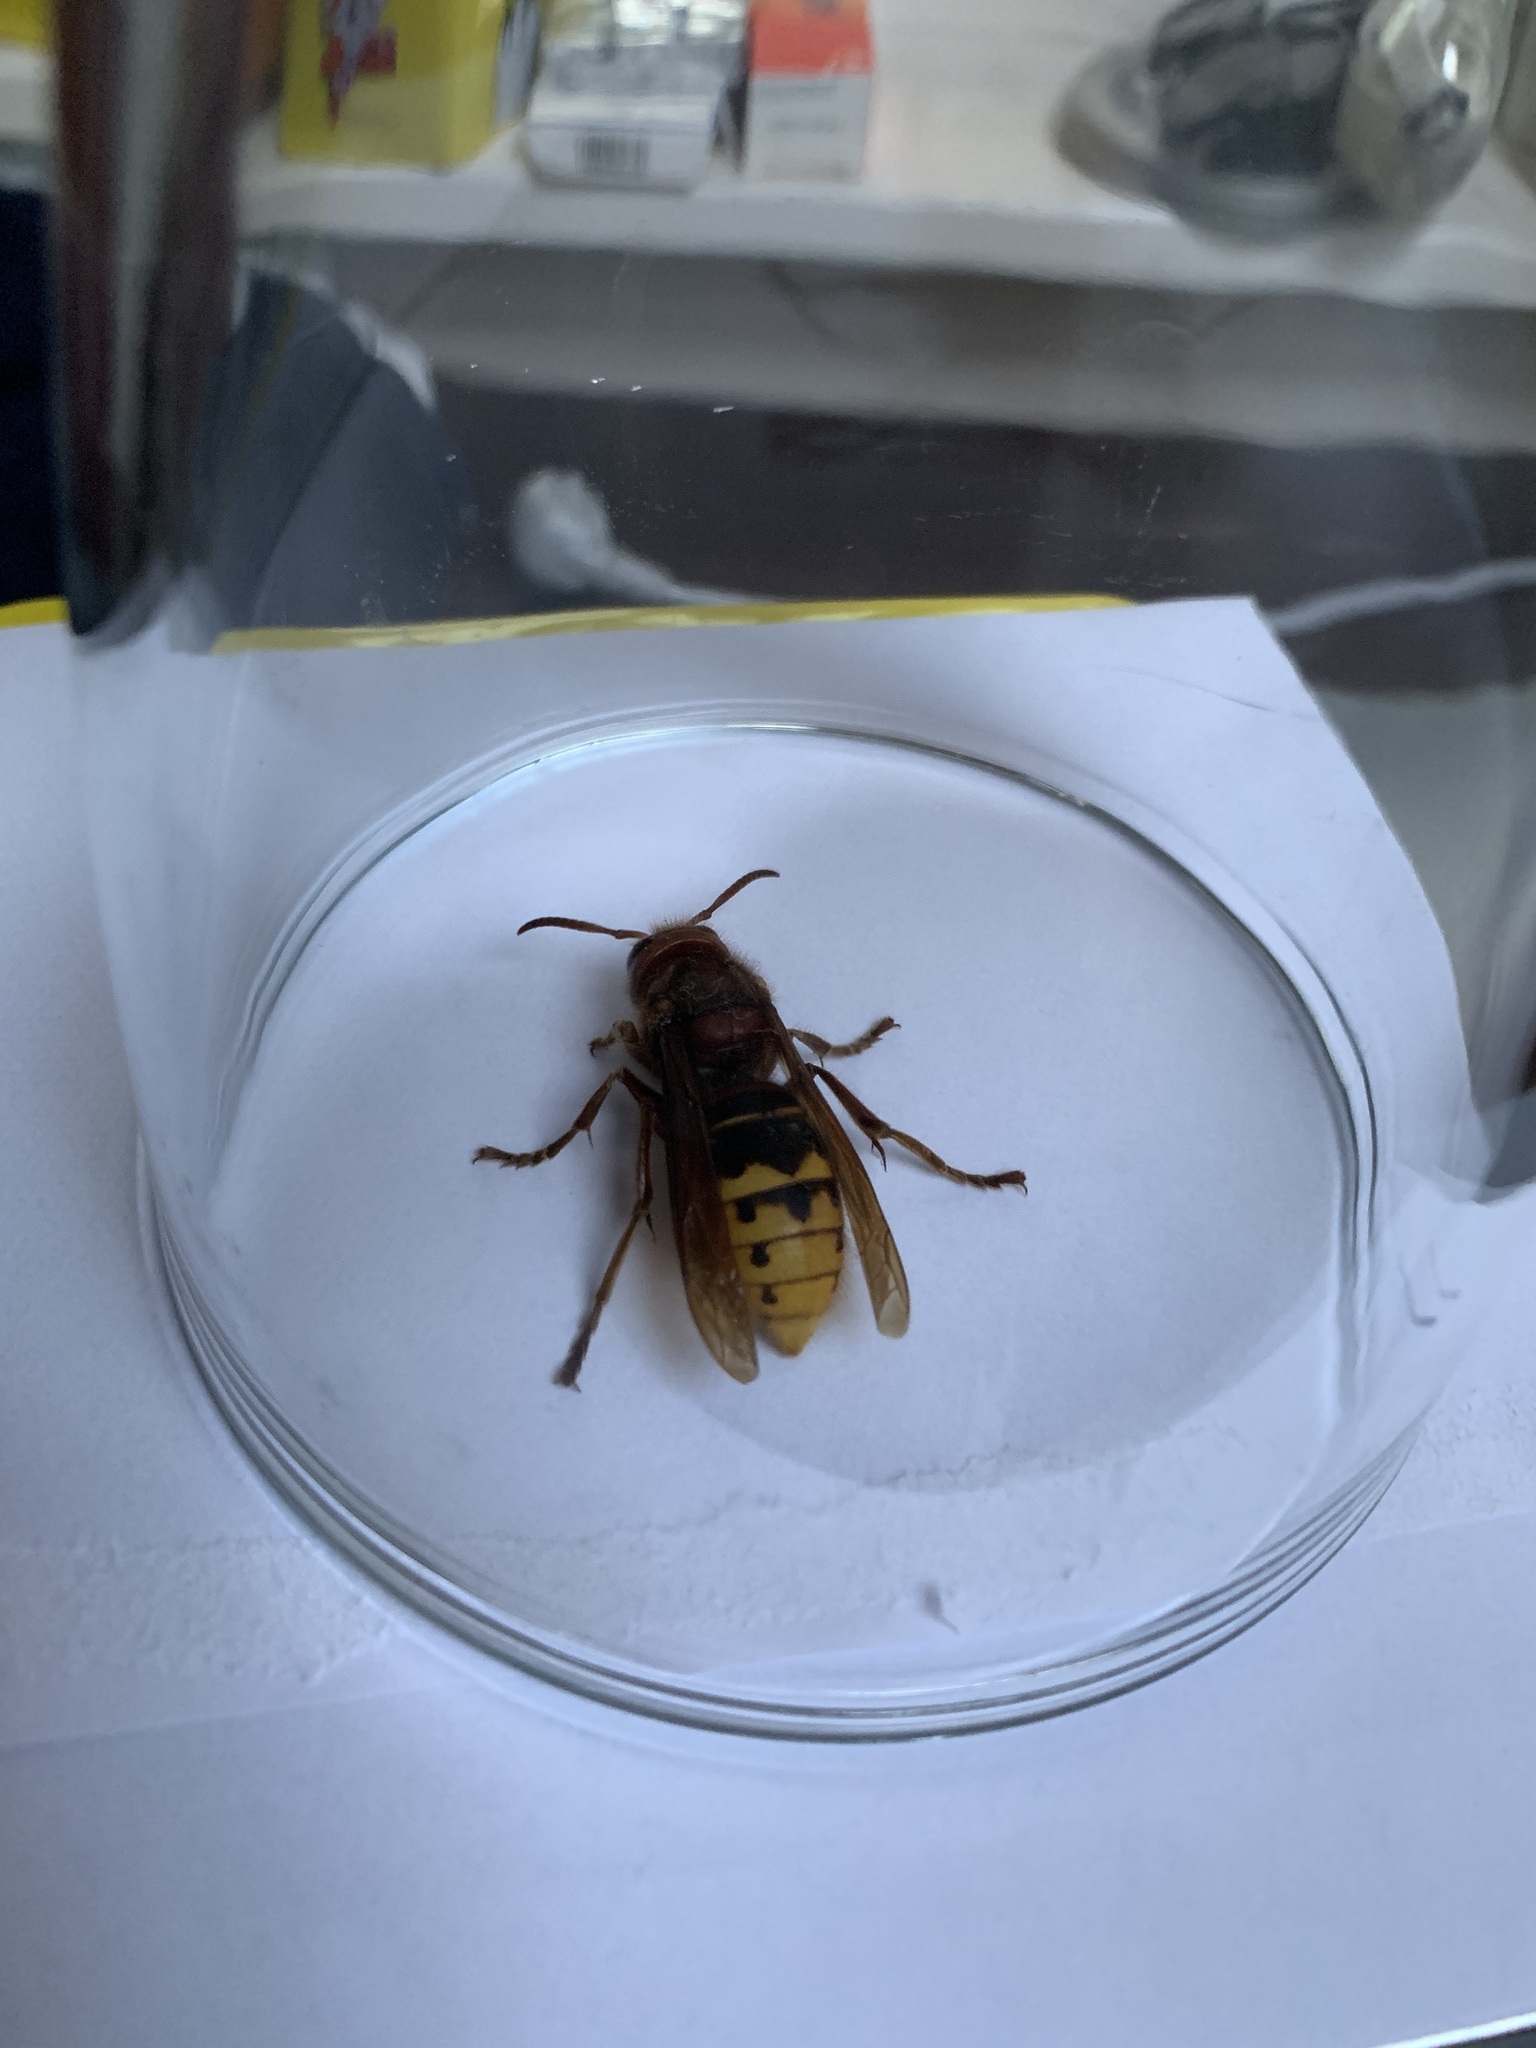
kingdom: Animalia
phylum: Arthropoda
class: Insecta
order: Hymenoptera
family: Vespidae
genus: Vespa
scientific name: Vespa crabro
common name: Hornet
